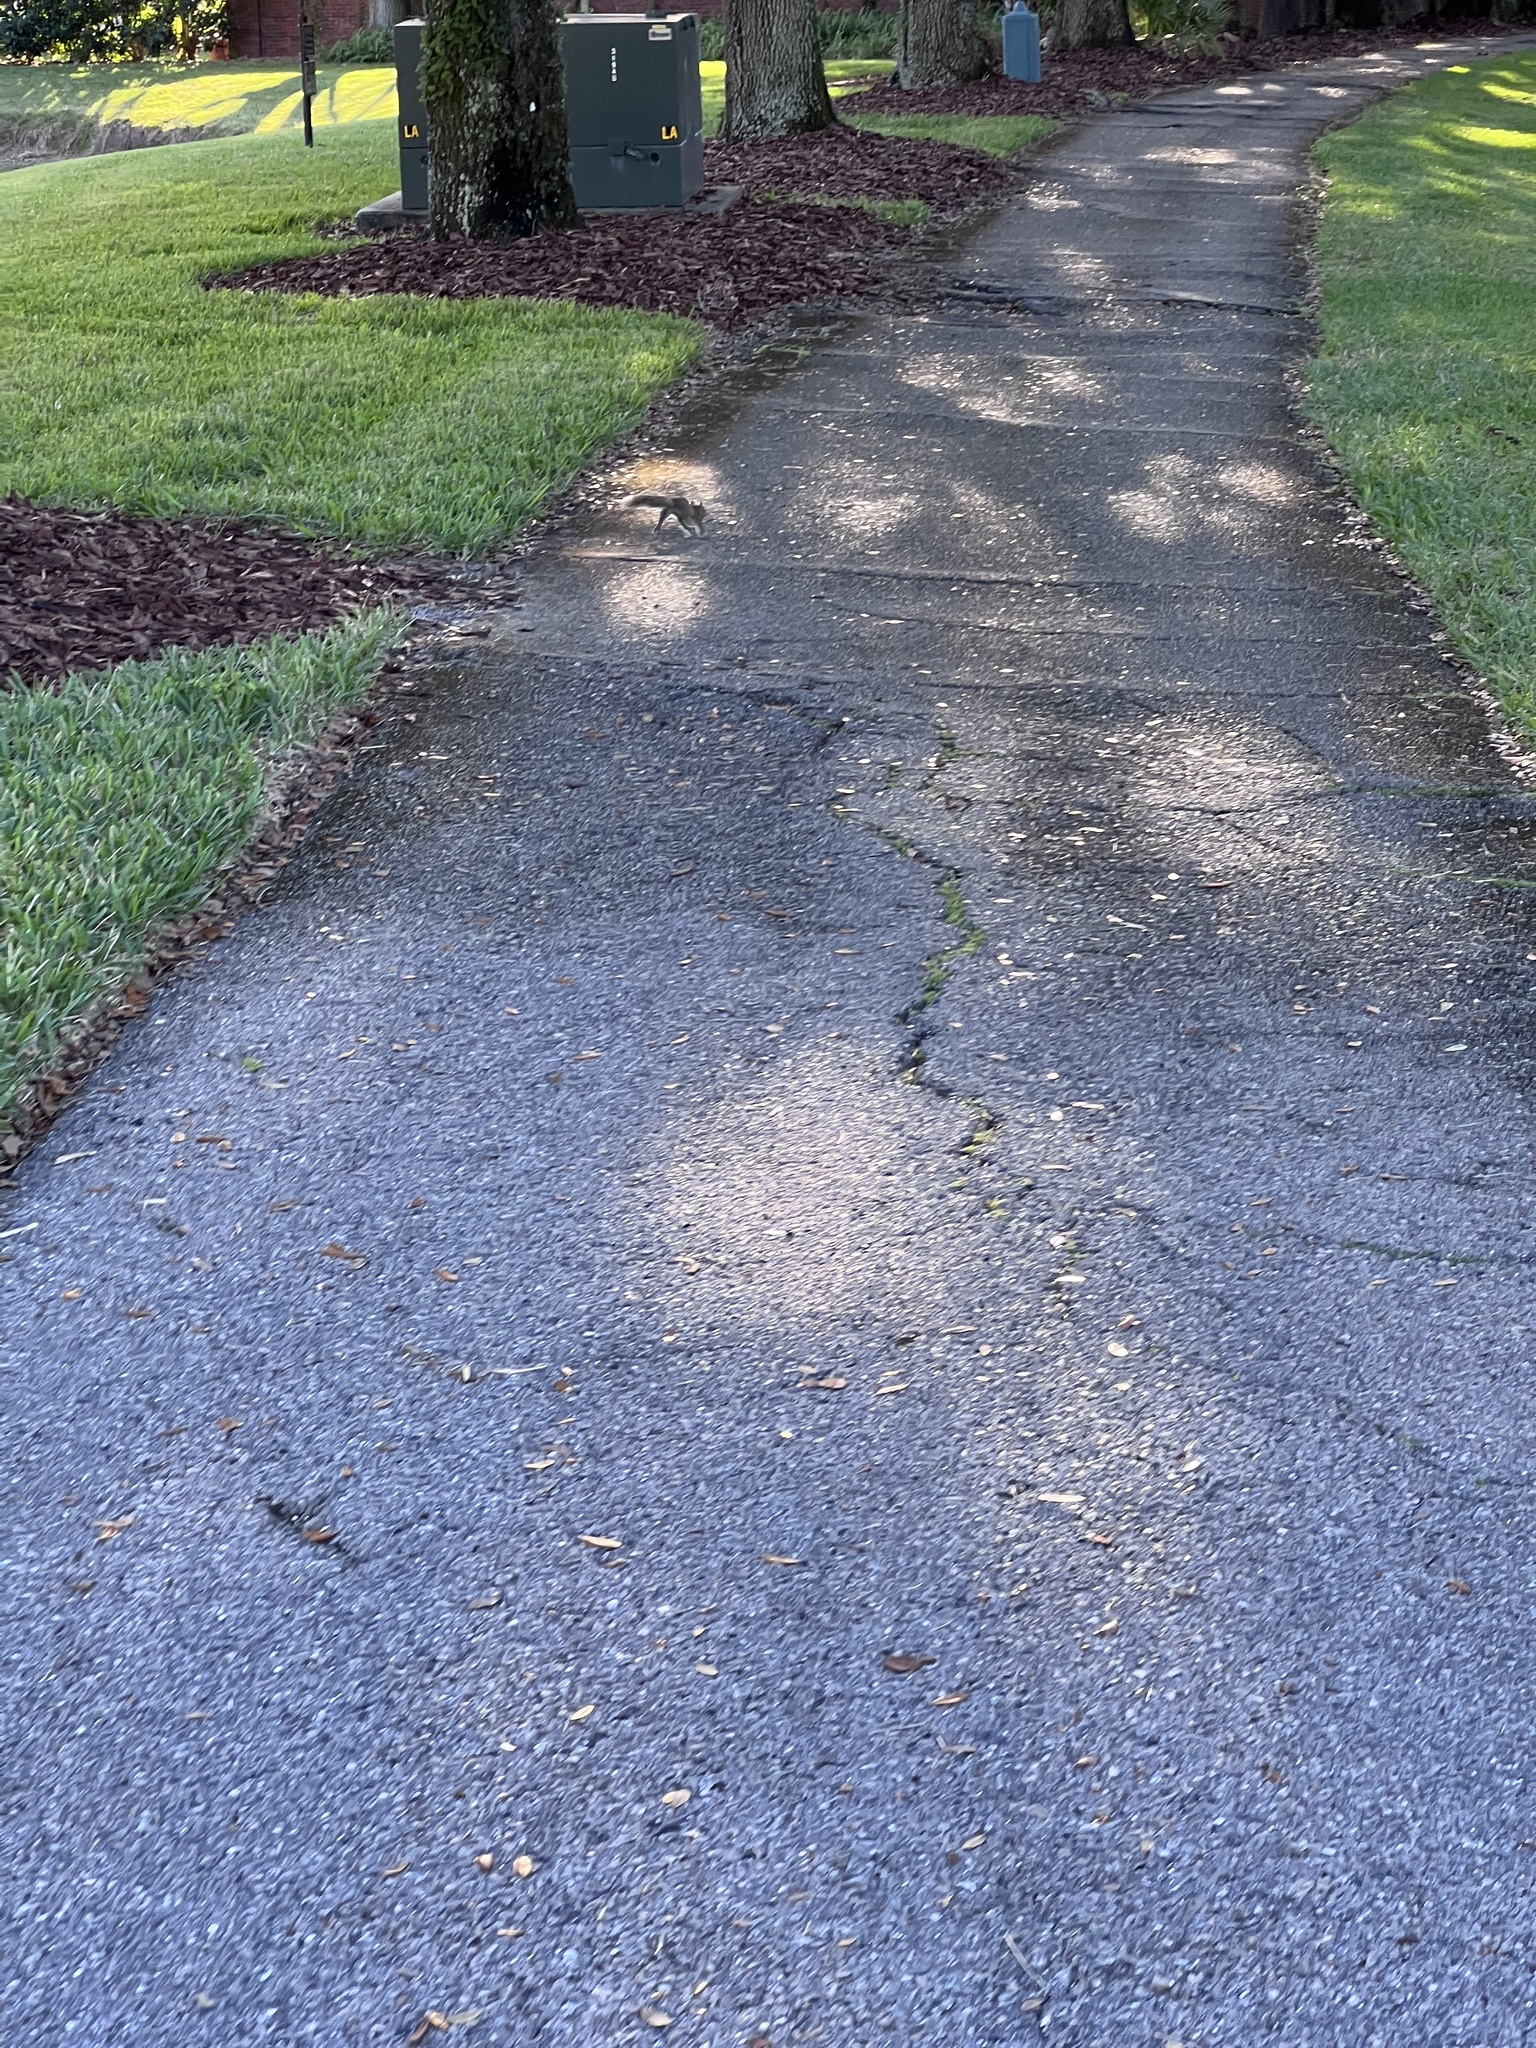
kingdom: Animalia
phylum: Chordata
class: Mammalia
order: Rodentia
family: Sciuridae
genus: Sciurus
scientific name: Sciurus carolinensis
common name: Eastern gray squirrel
